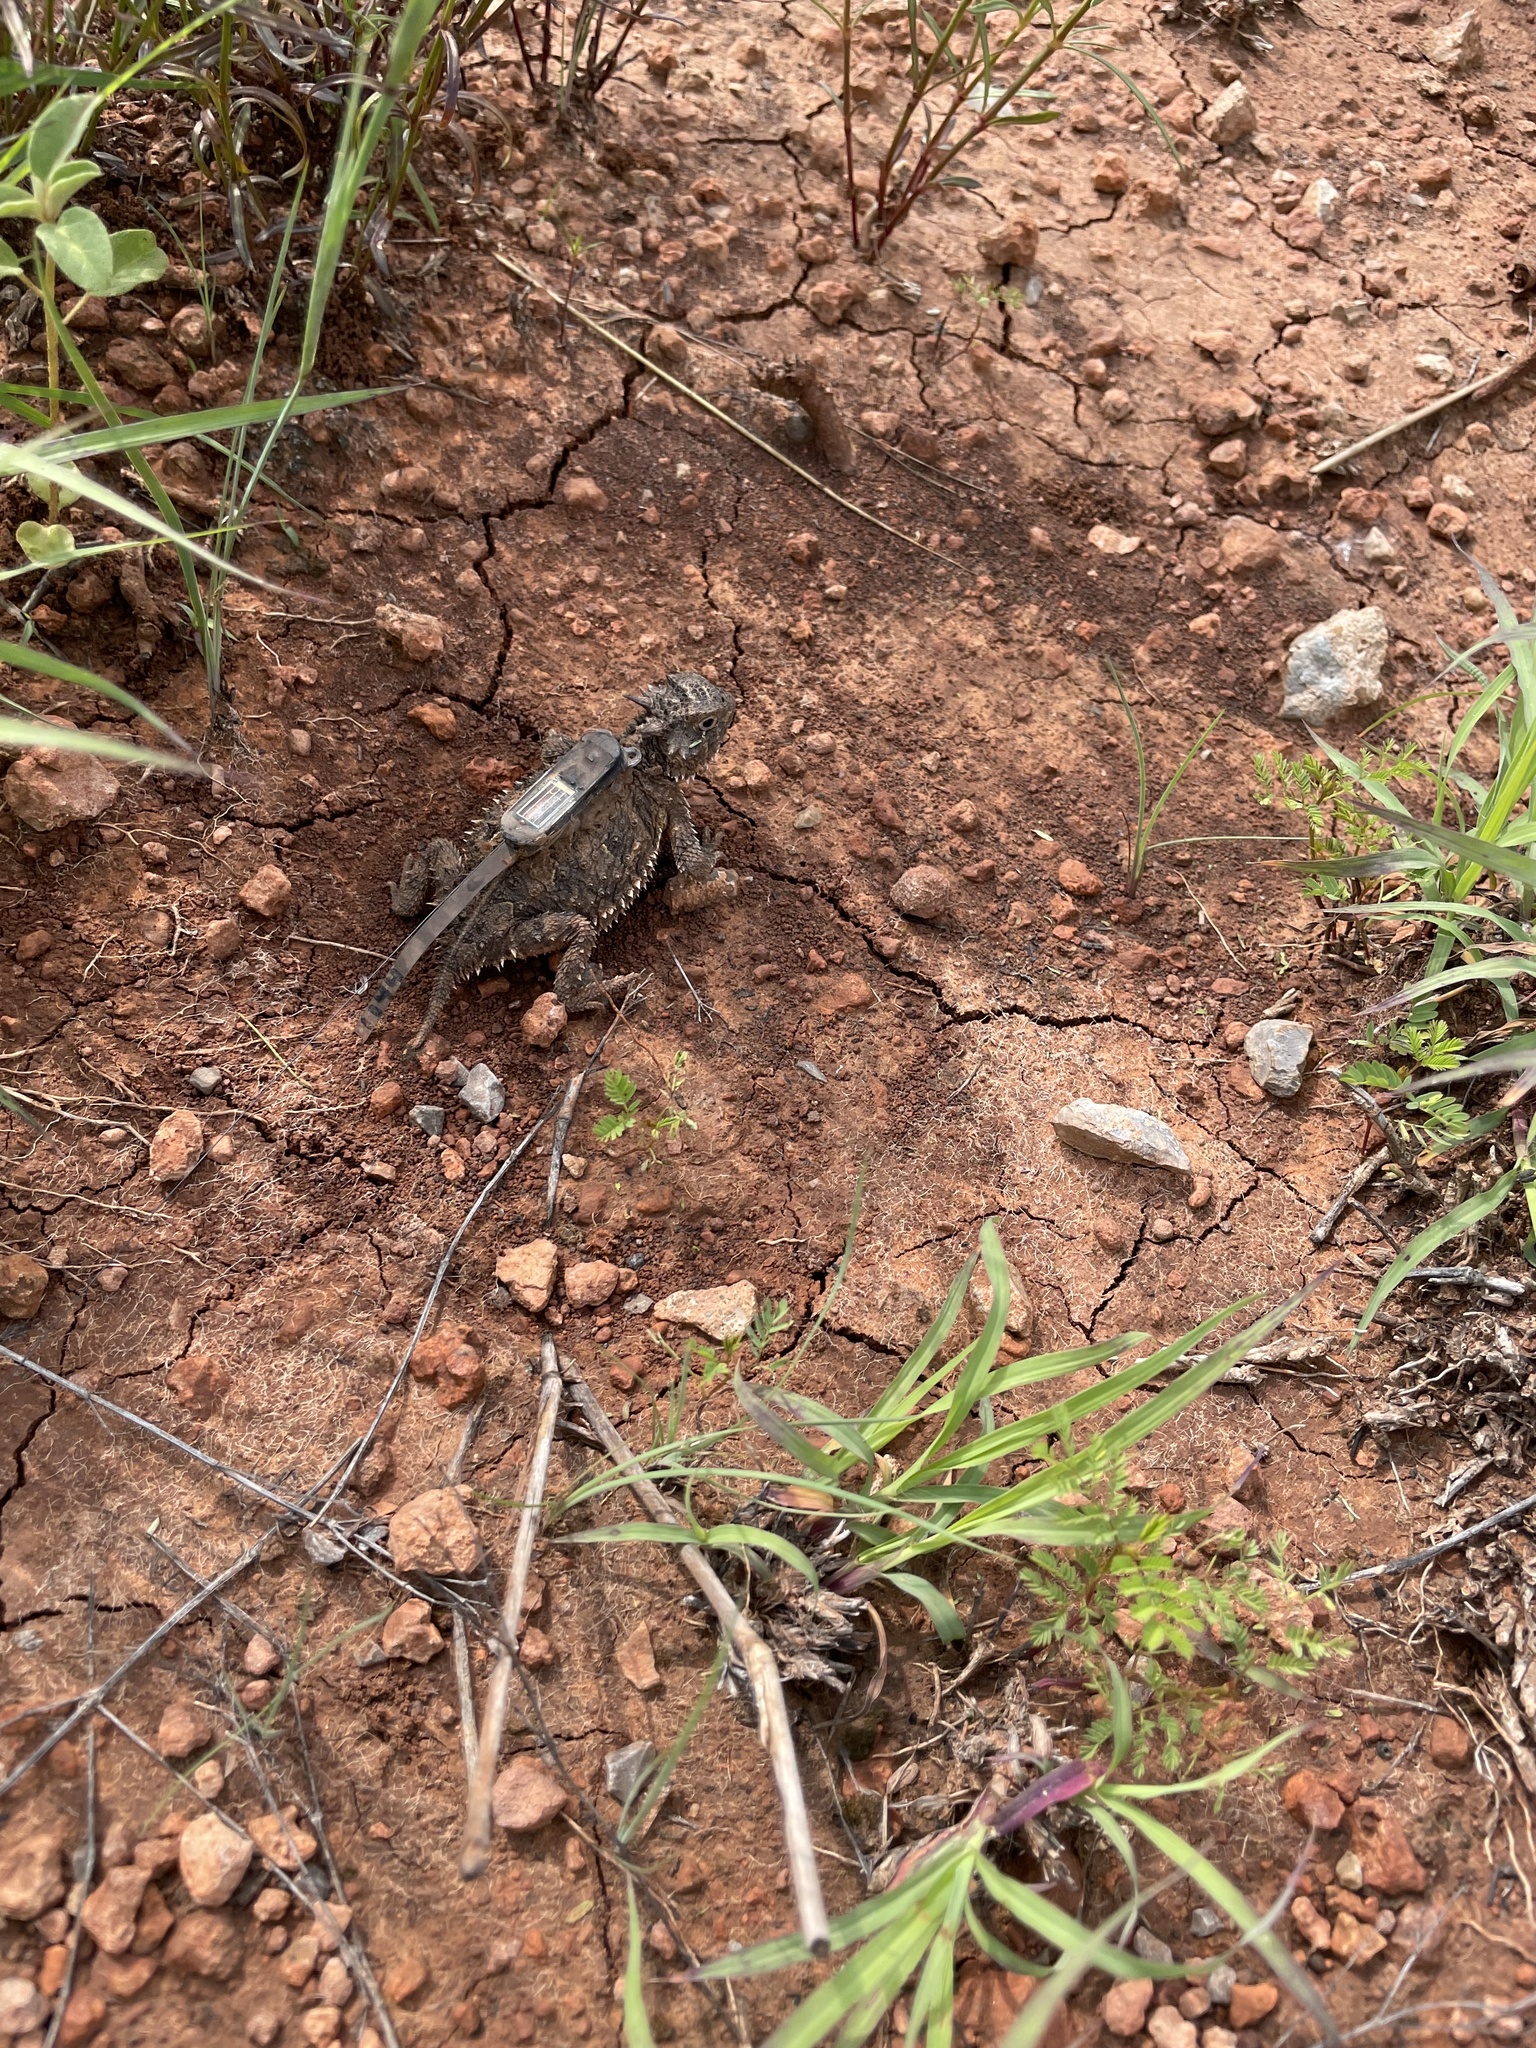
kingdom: Animalia
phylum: Chordata
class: Squamata
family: Phrynosomatidae
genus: Phrynosoma
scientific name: Phrynosoma cornutum
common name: Texas horned lizard
